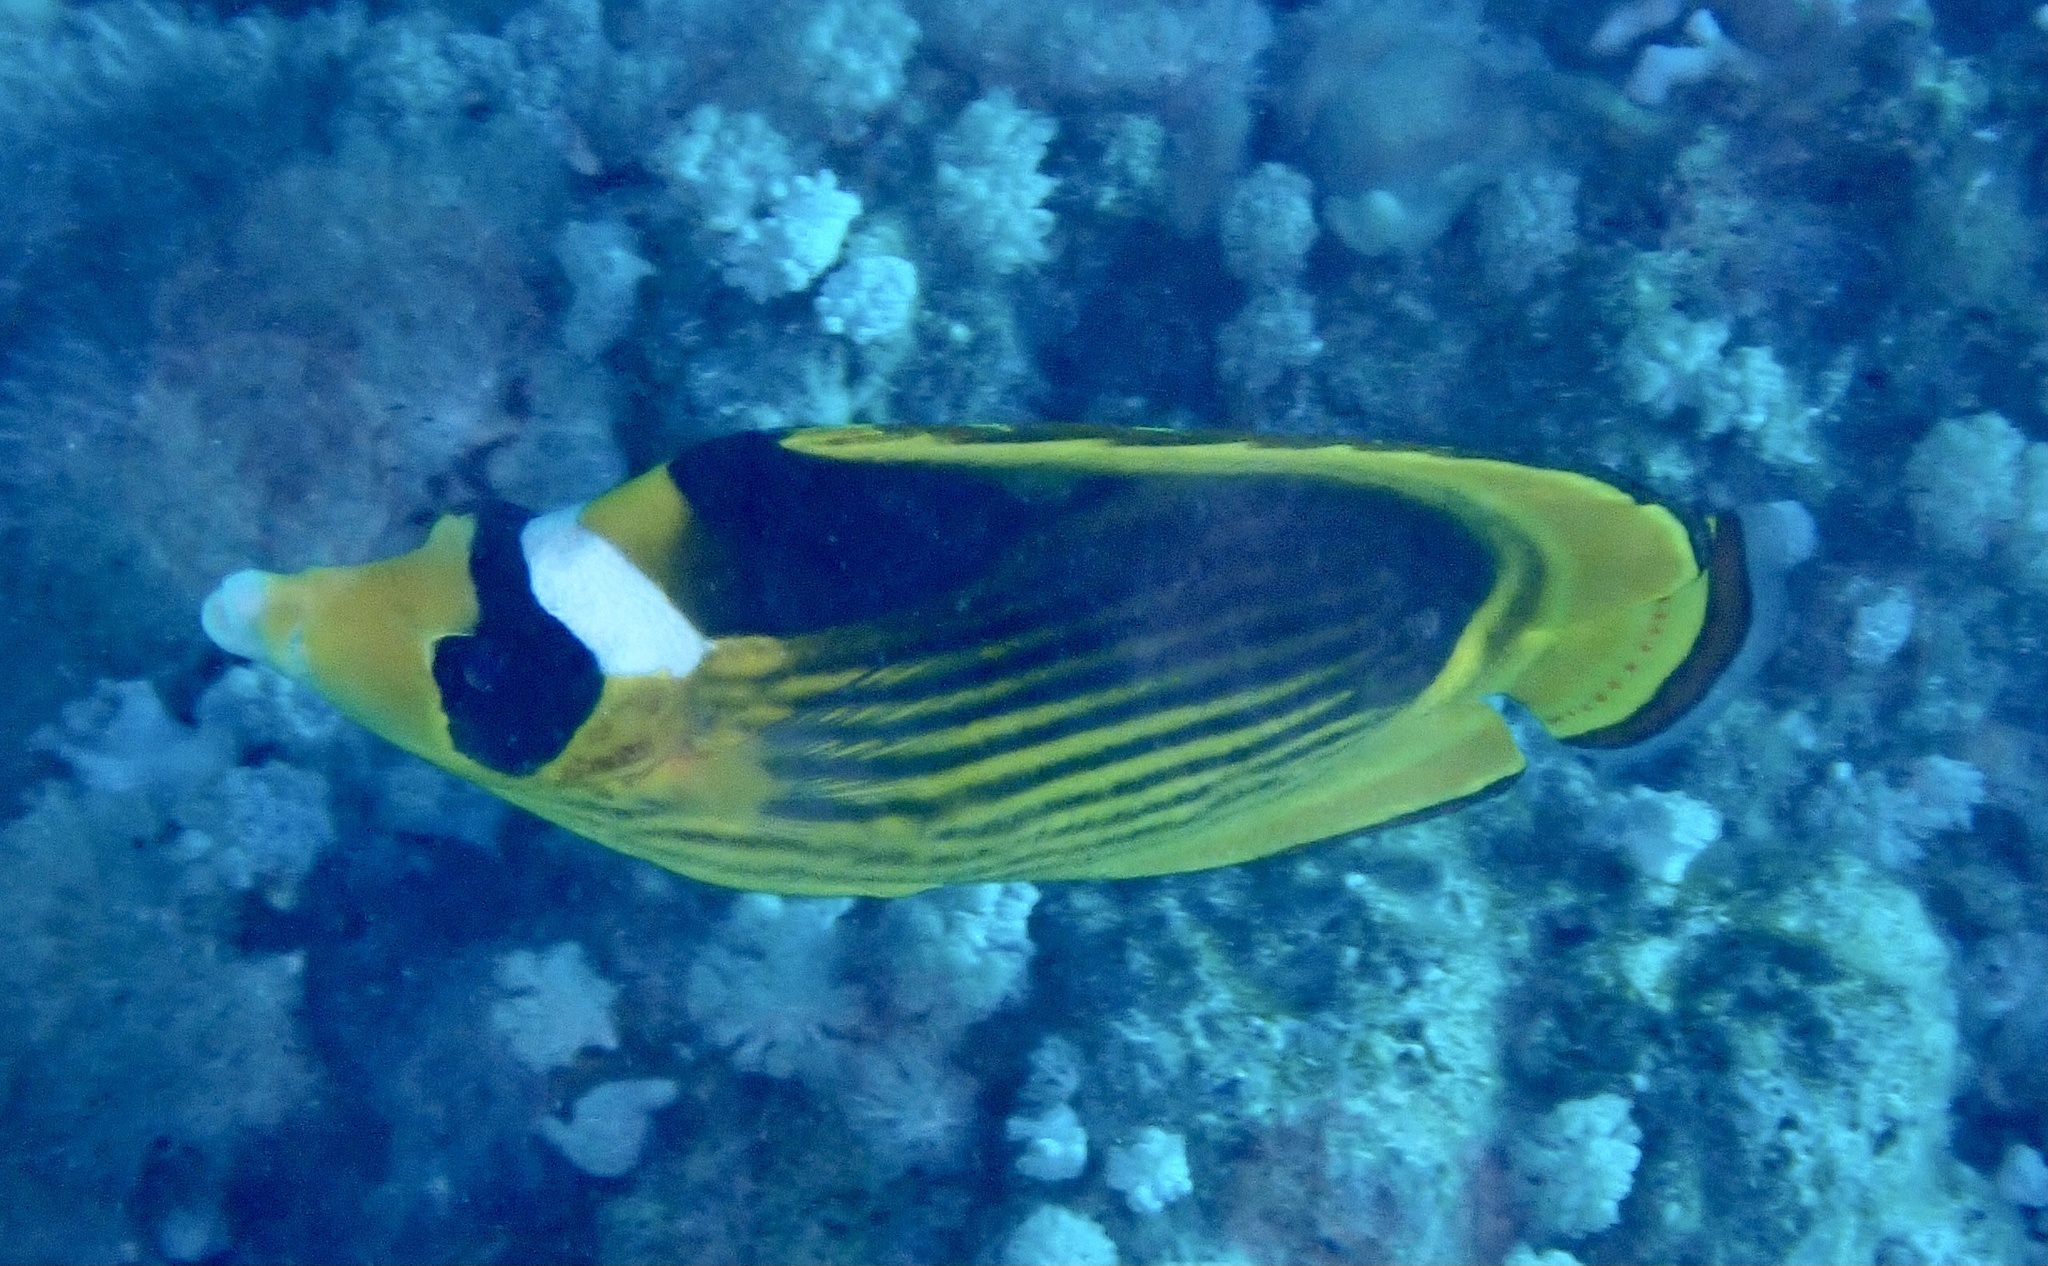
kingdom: Animalia
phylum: Chordata
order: Perciformes
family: Chaetodontidae
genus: Chaetodon
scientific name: Chaetodon fasciatus
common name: Diagonal butterflyfish
